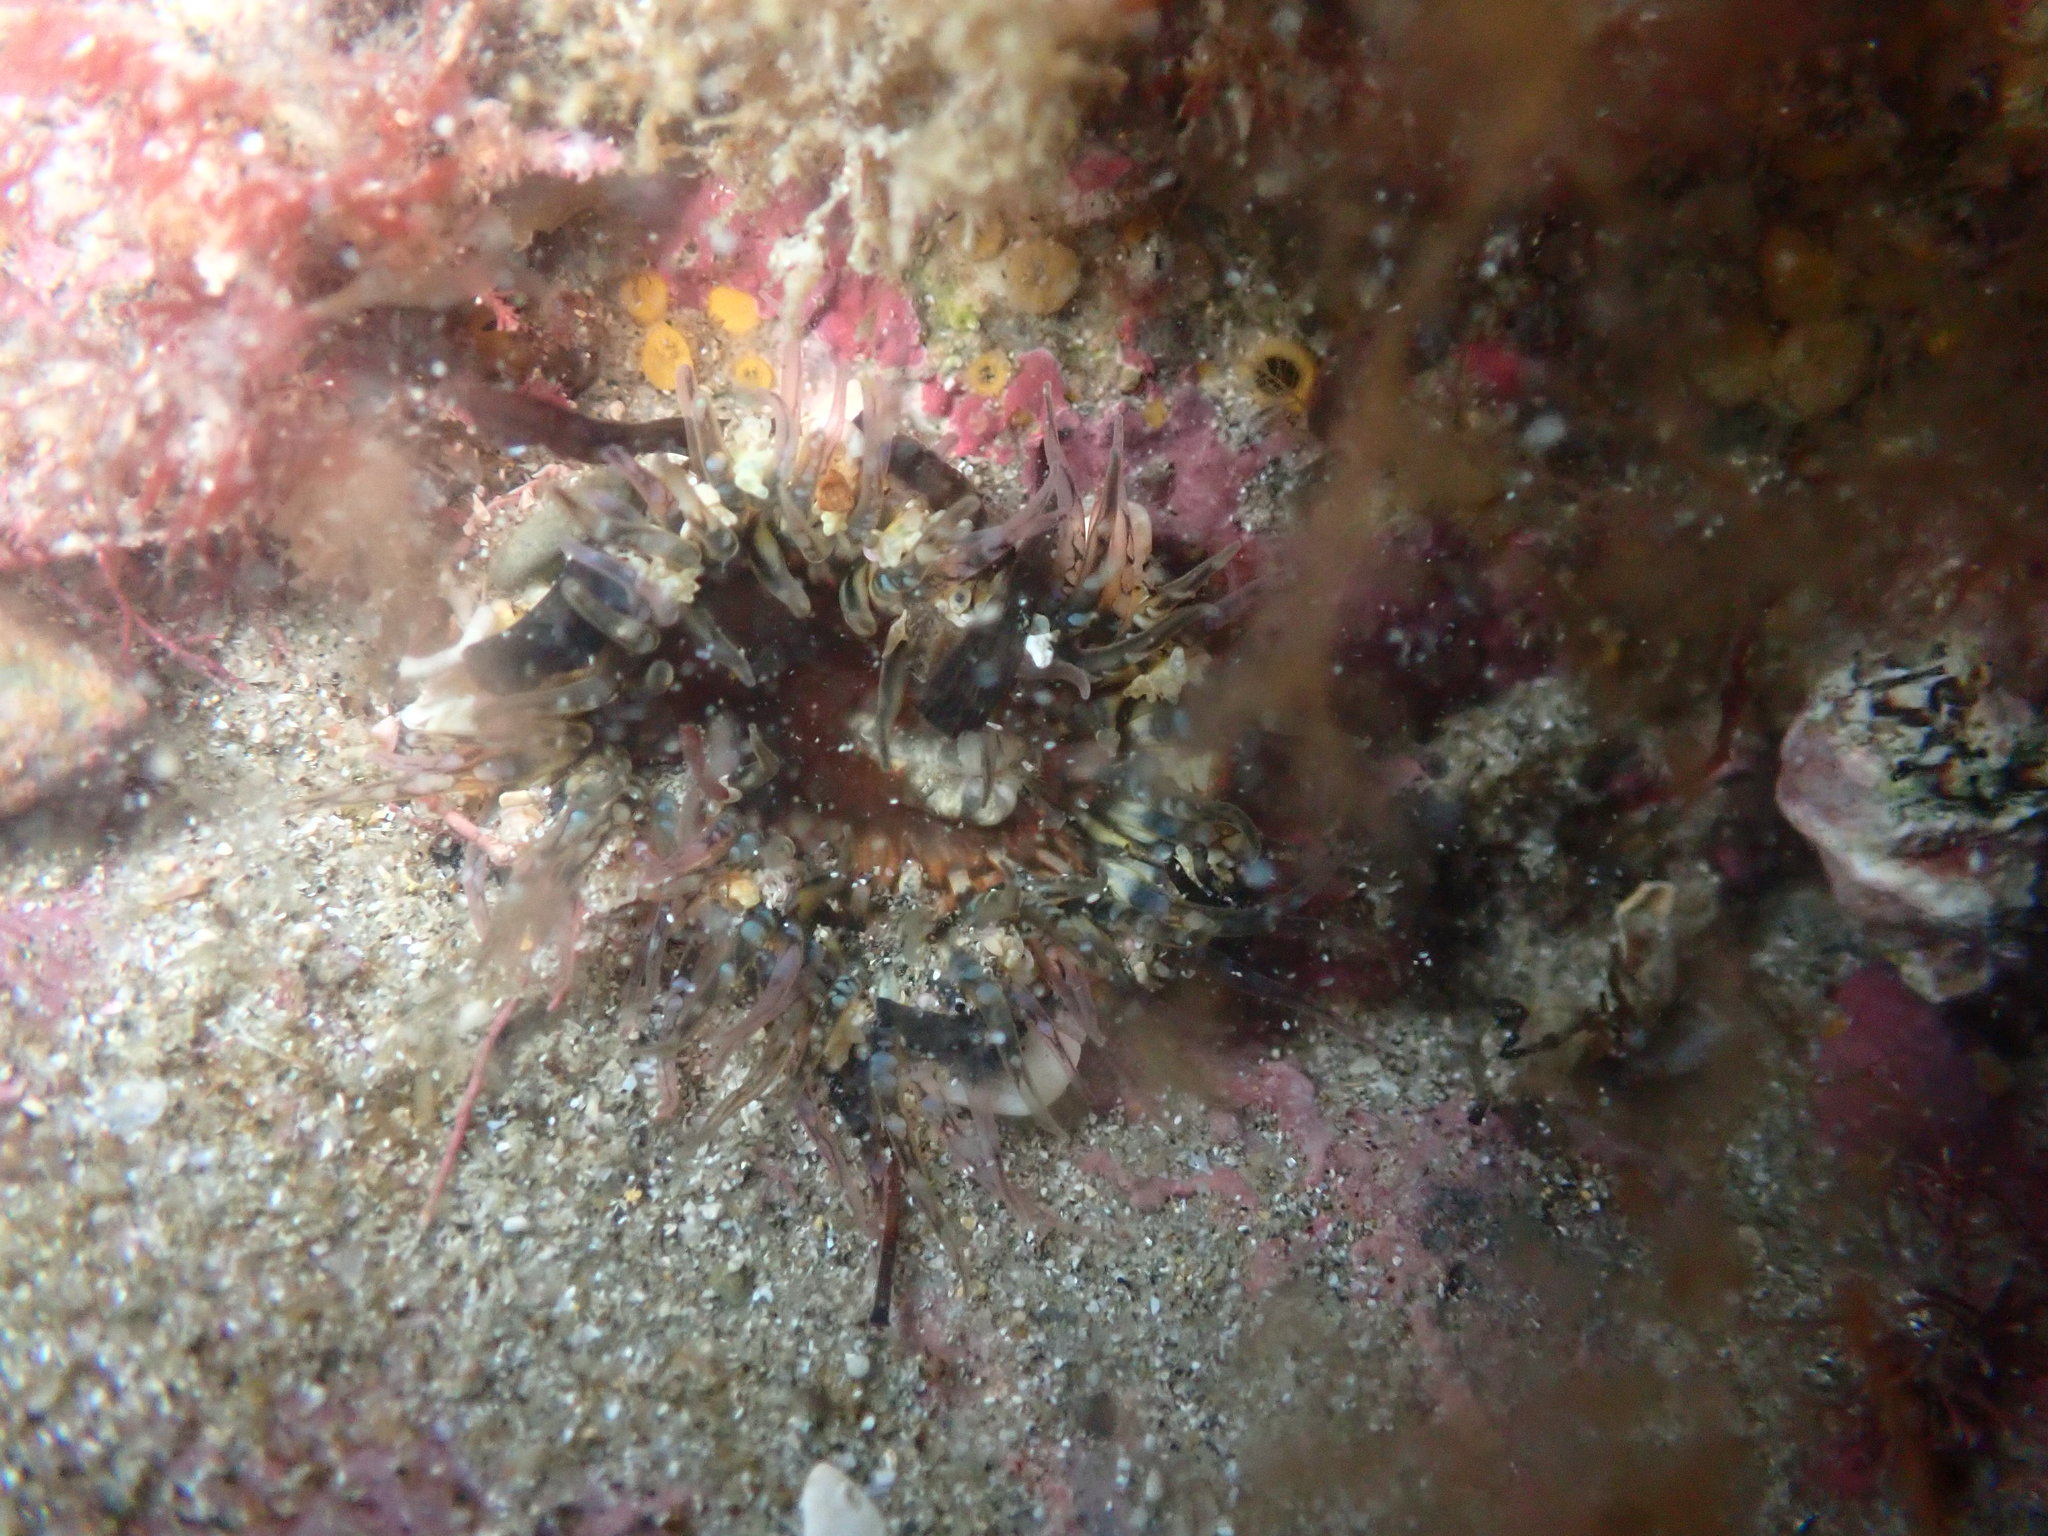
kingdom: Animalia
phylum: Cnidaria
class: Anthozoa
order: Actiniaria
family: Actiniidae
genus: Oulactis
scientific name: Oulactis muscosa
